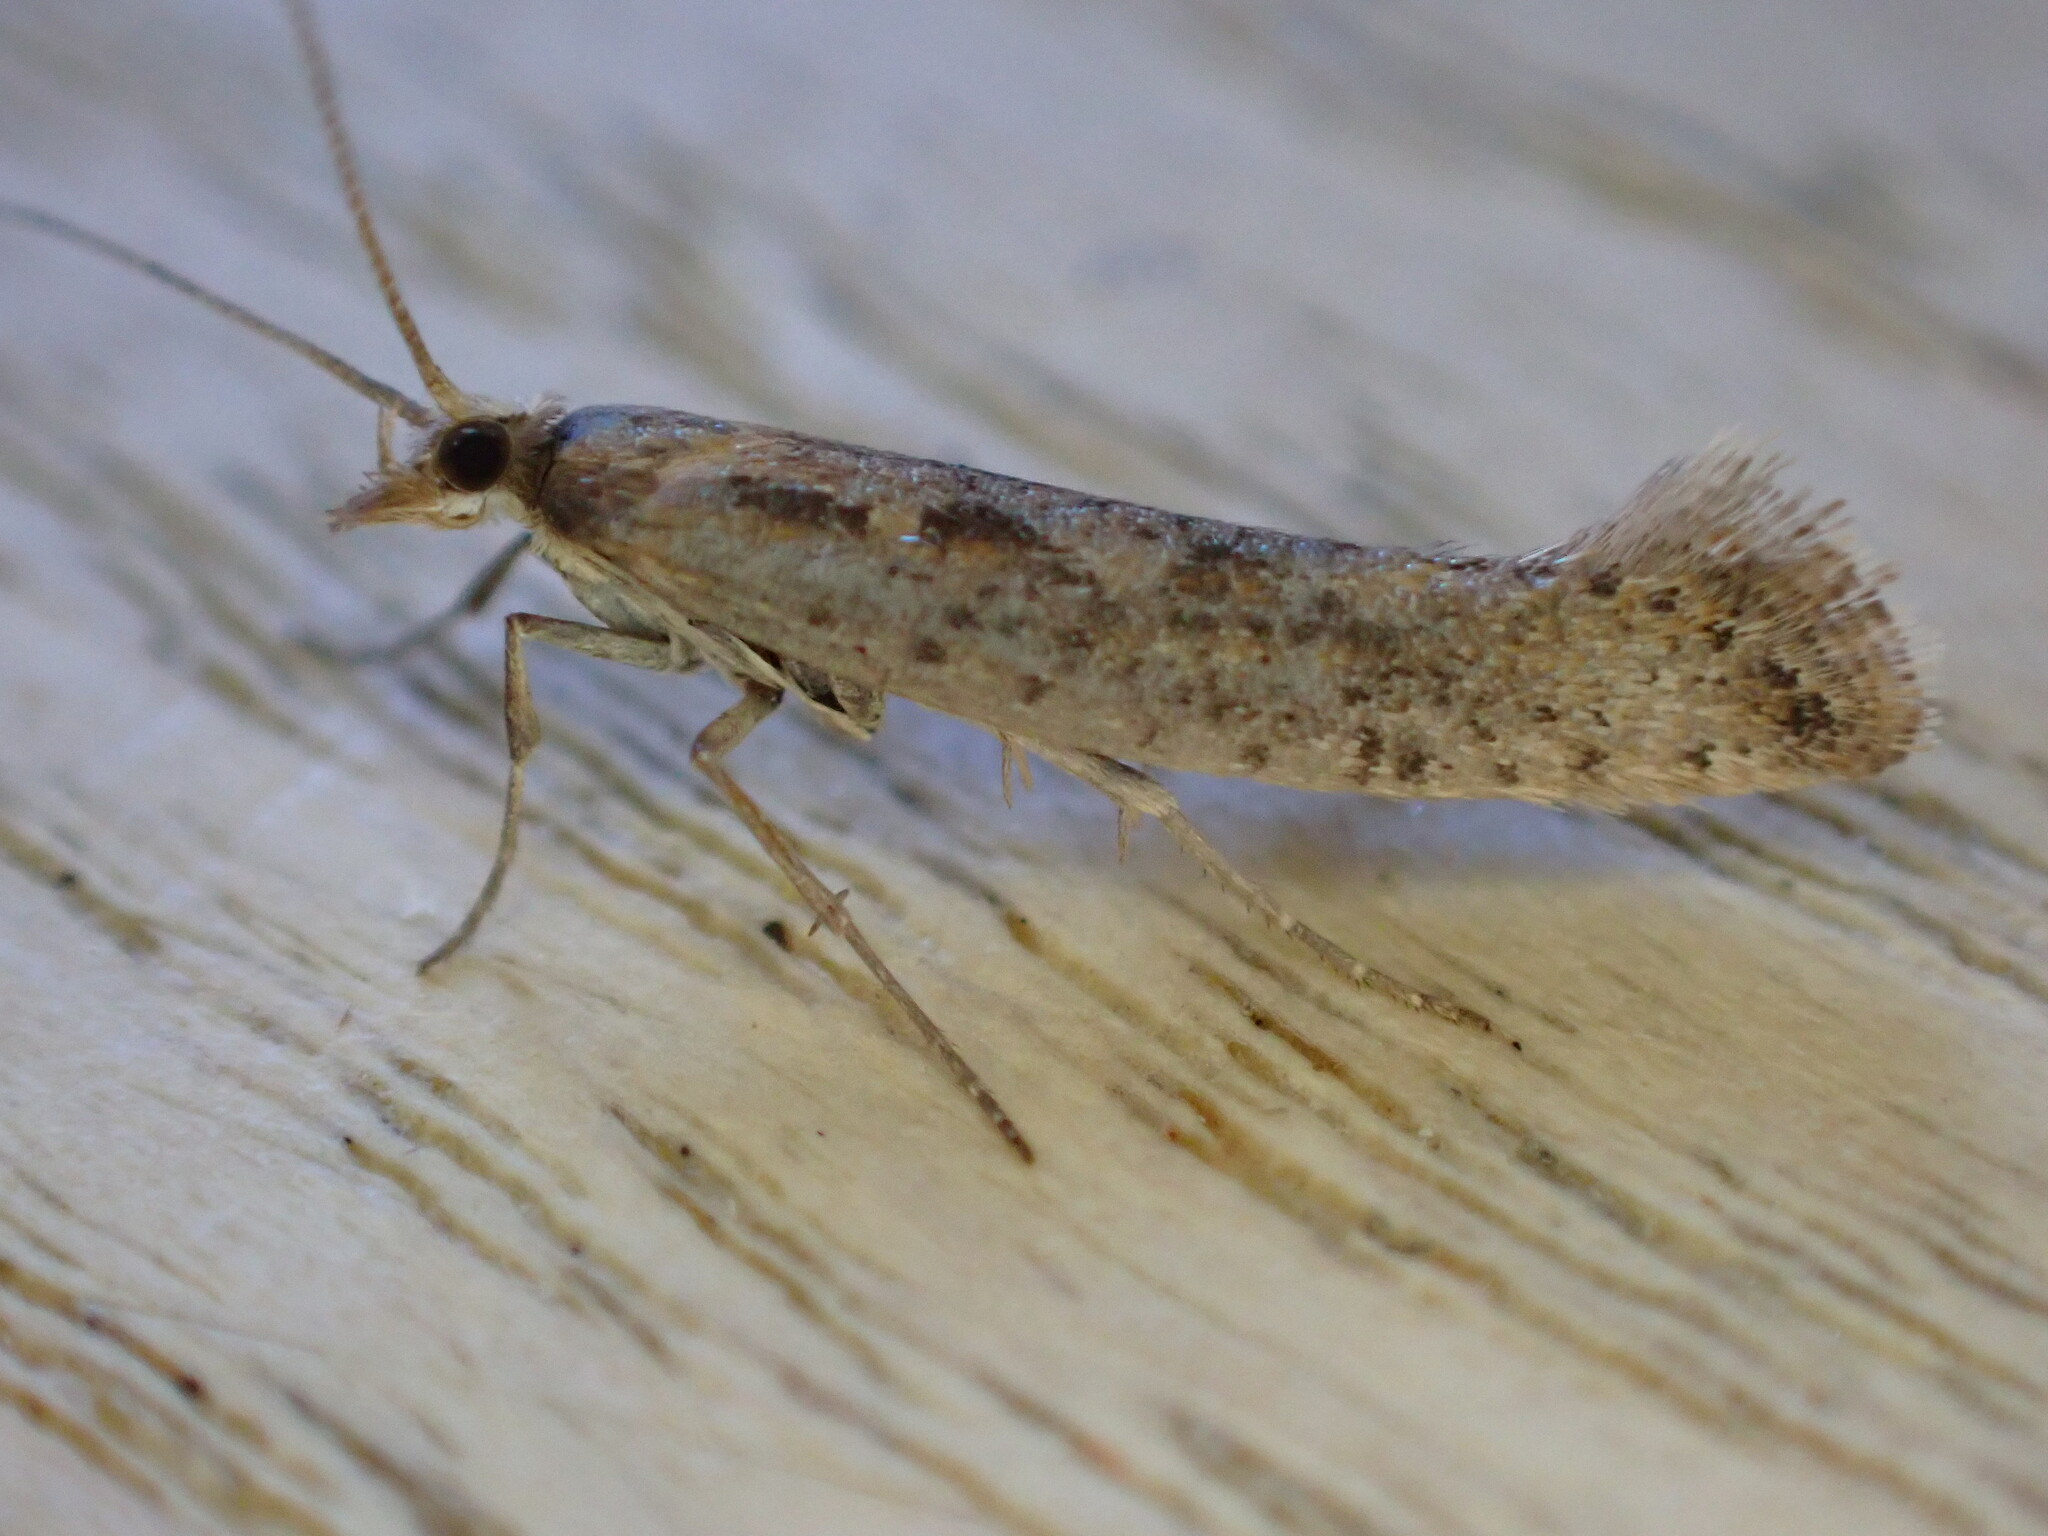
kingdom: Animalia
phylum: Arthropoda
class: Insecta
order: Lepidoptera
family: Plutellidae
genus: Plutella
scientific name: Plutella xylostella
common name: Diamond-back moth
